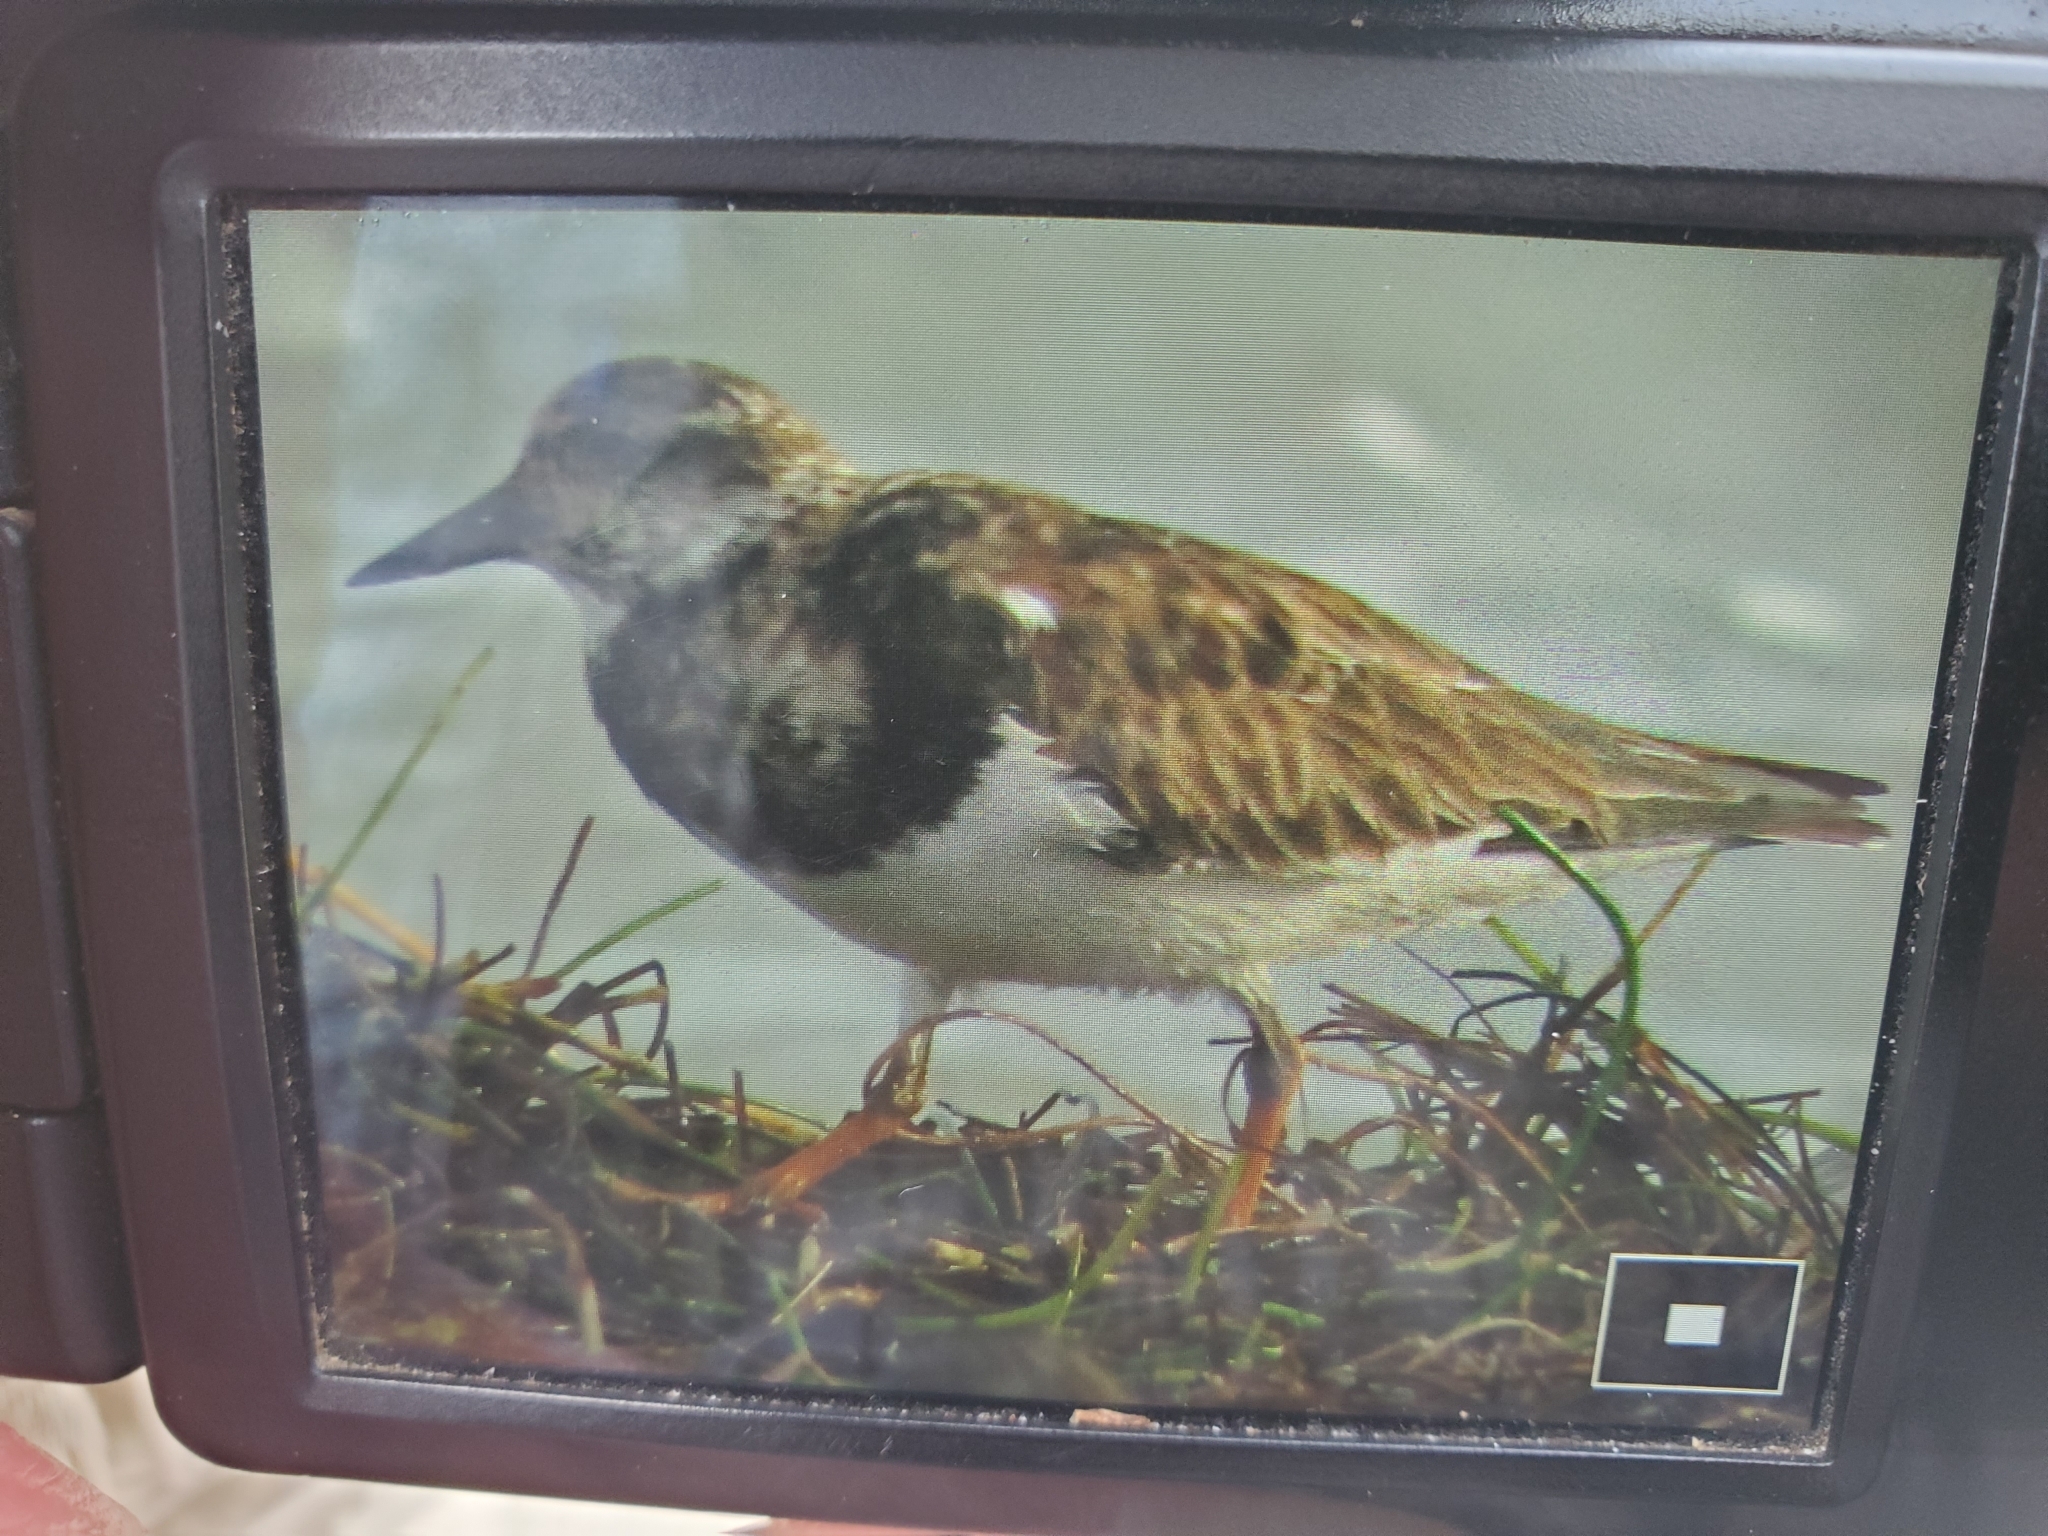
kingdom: Animalia
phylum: Chordata
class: Aves
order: Charadriiformes
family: Scolopacidae
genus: Arenaria
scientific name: Arenaria interpres
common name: Ruddy turnstone
